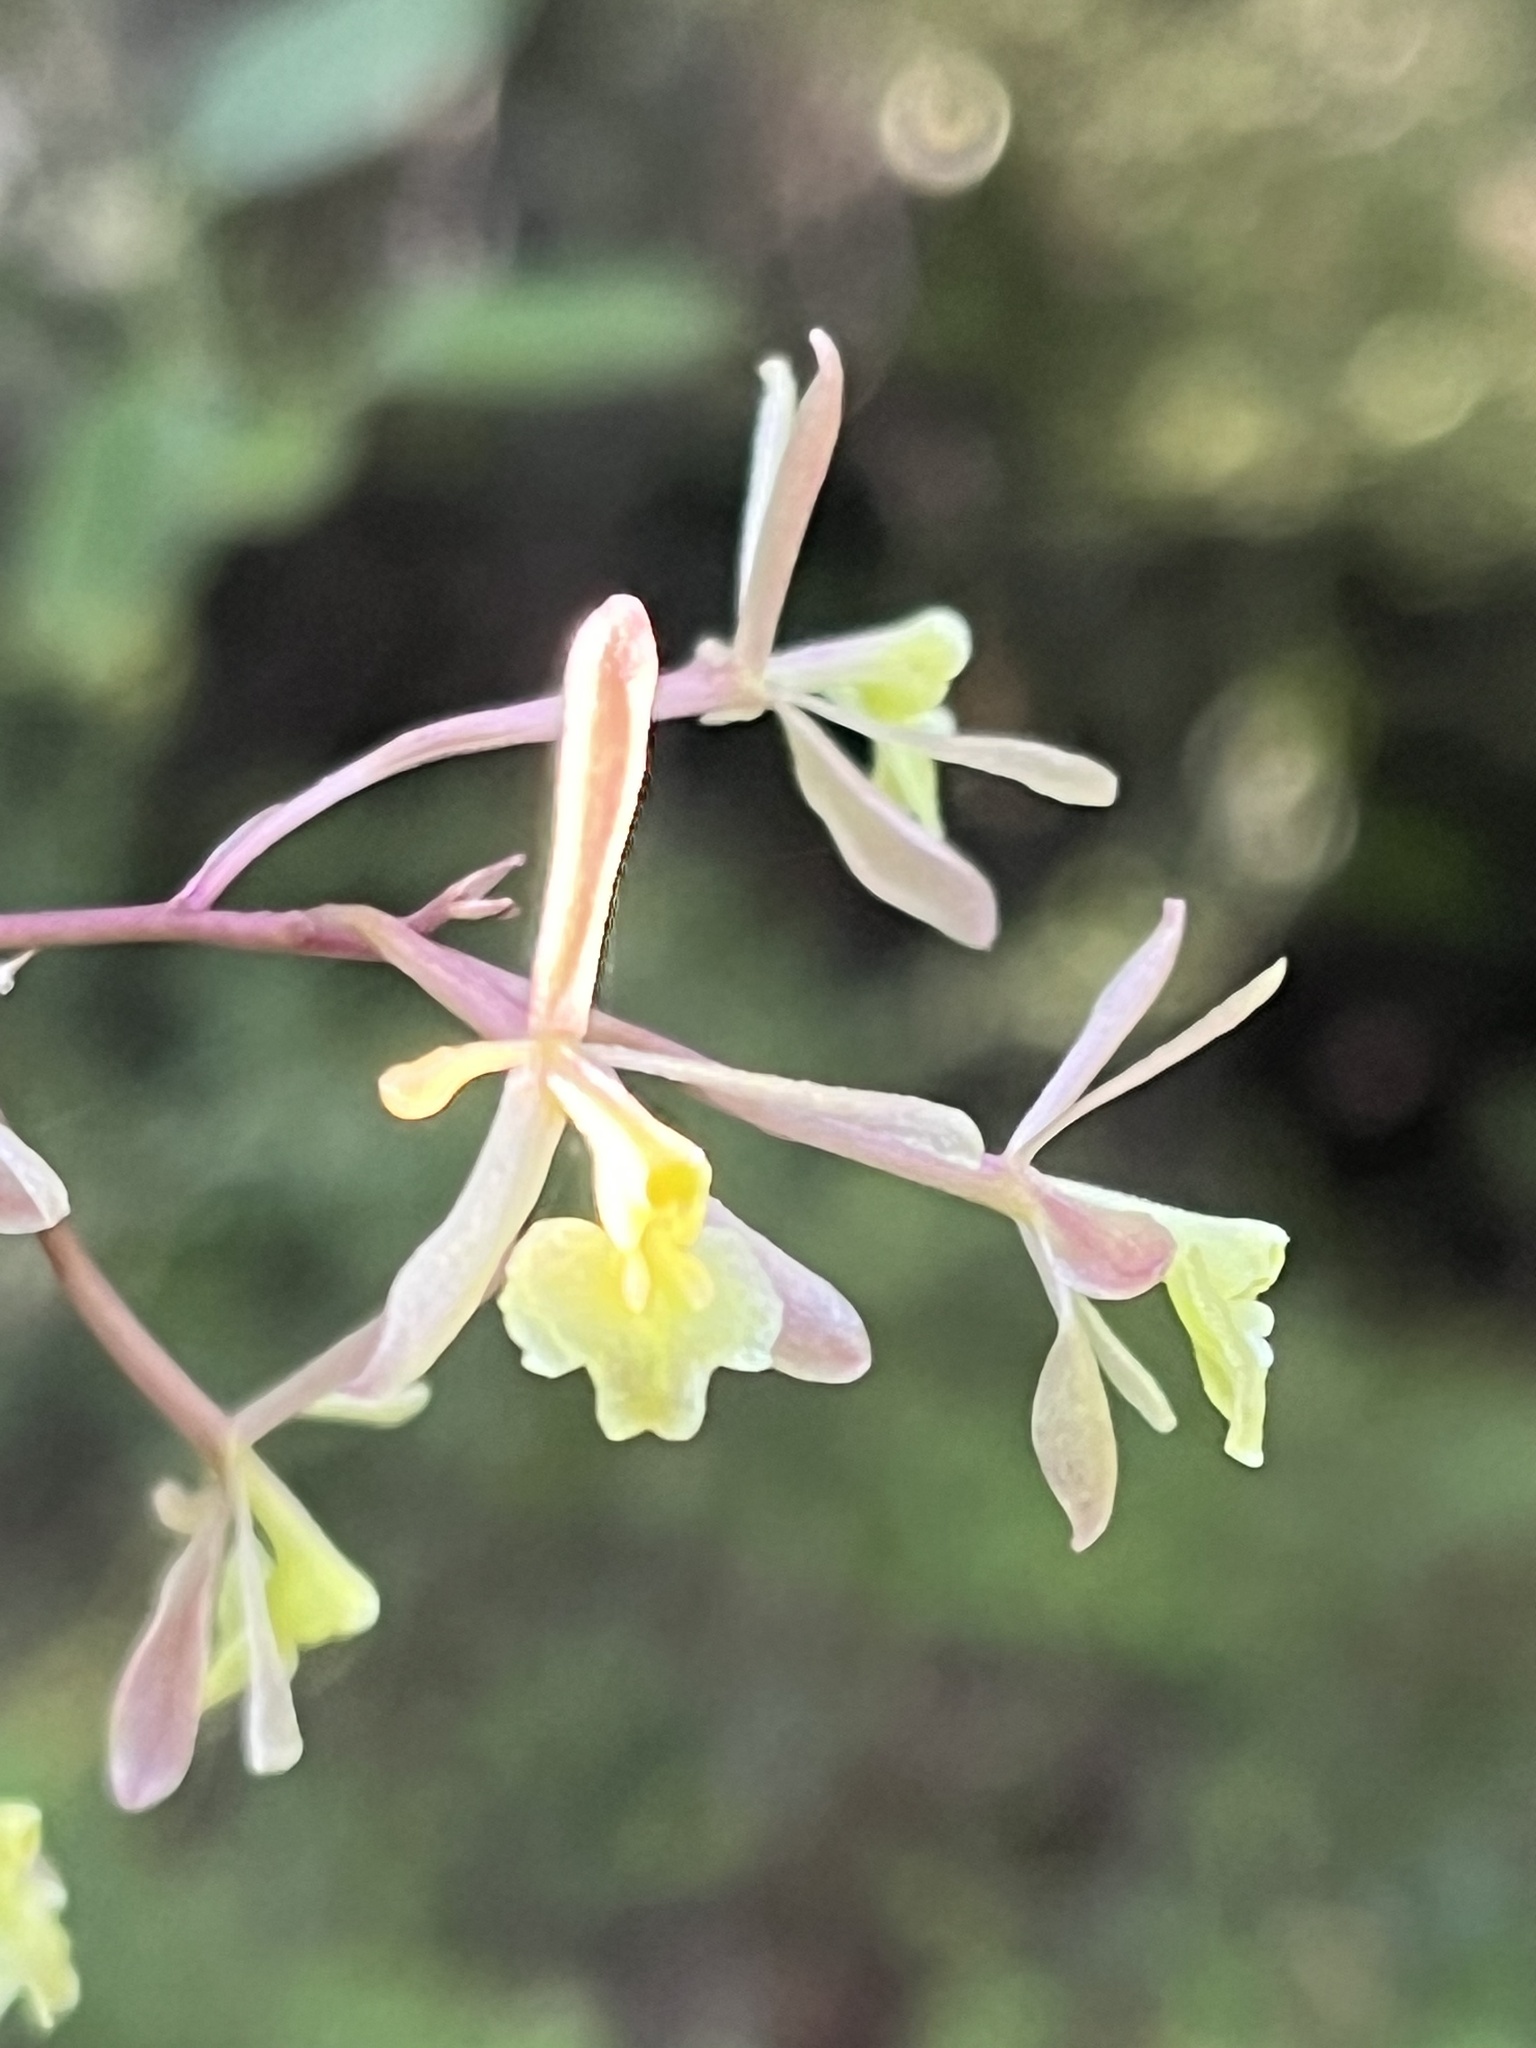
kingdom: Plantae
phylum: Tracheophyta
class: Liliopsida
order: Asparagales
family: Orchidaceae
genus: Epidendrum
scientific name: Epidendrum conopseum
